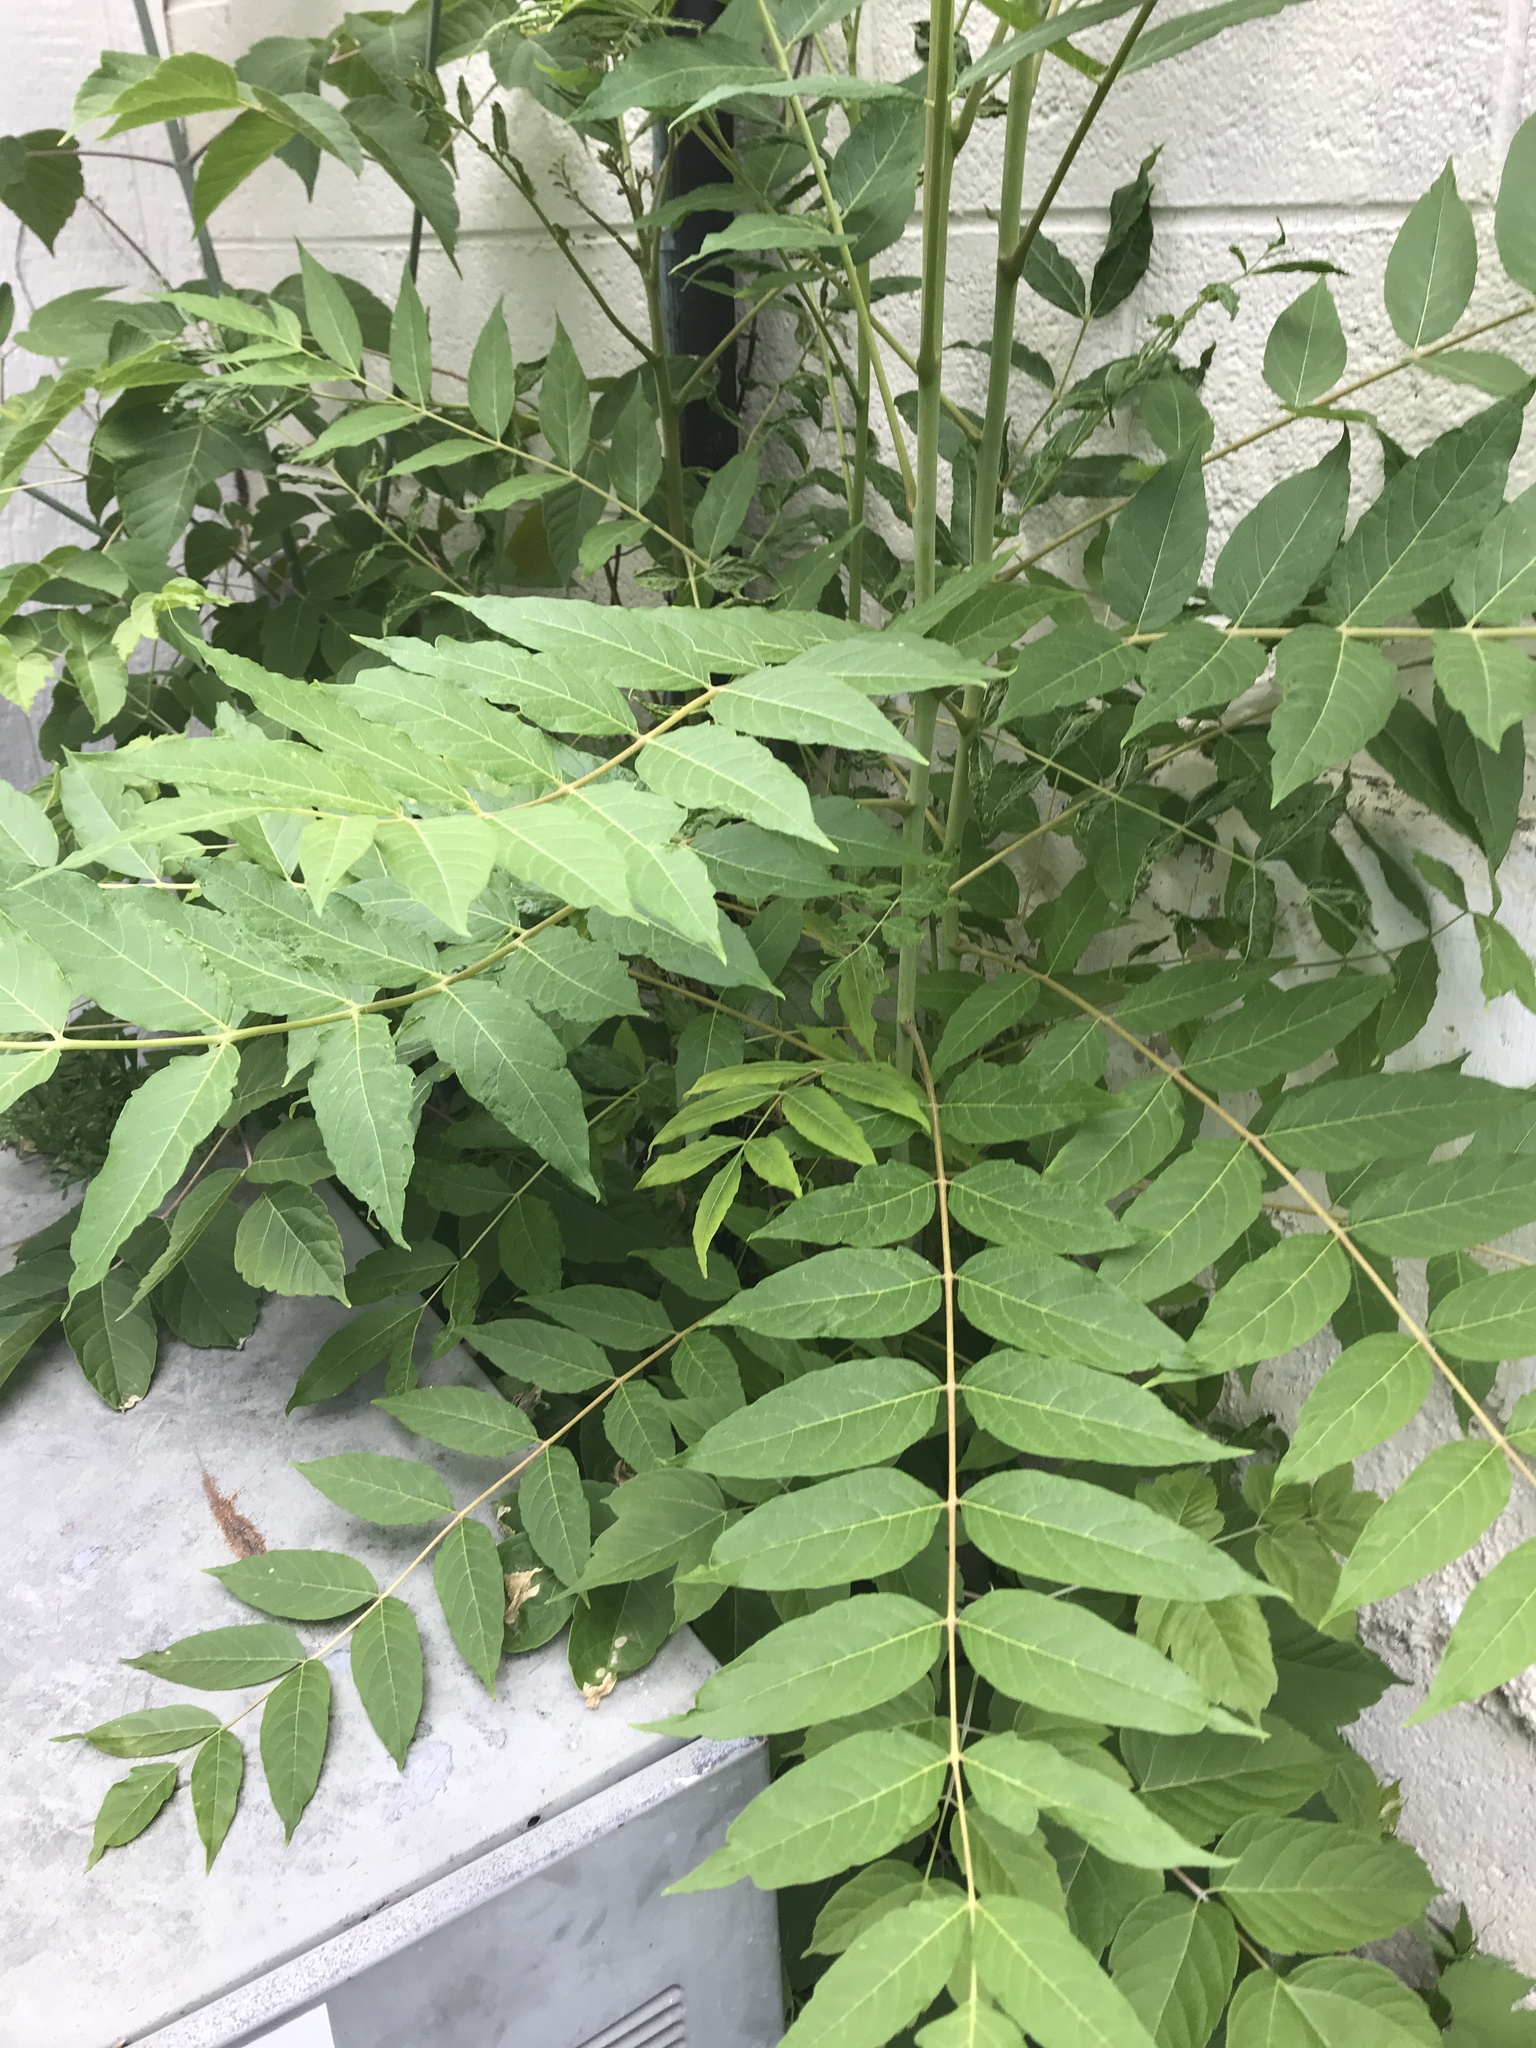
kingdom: Plantae
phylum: Tracheophyta
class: Magnoliopsida
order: Sapindales
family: Simaroubaceae
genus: Ailanthus
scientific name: Ailanthus altissima
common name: Tree-of-heaven
